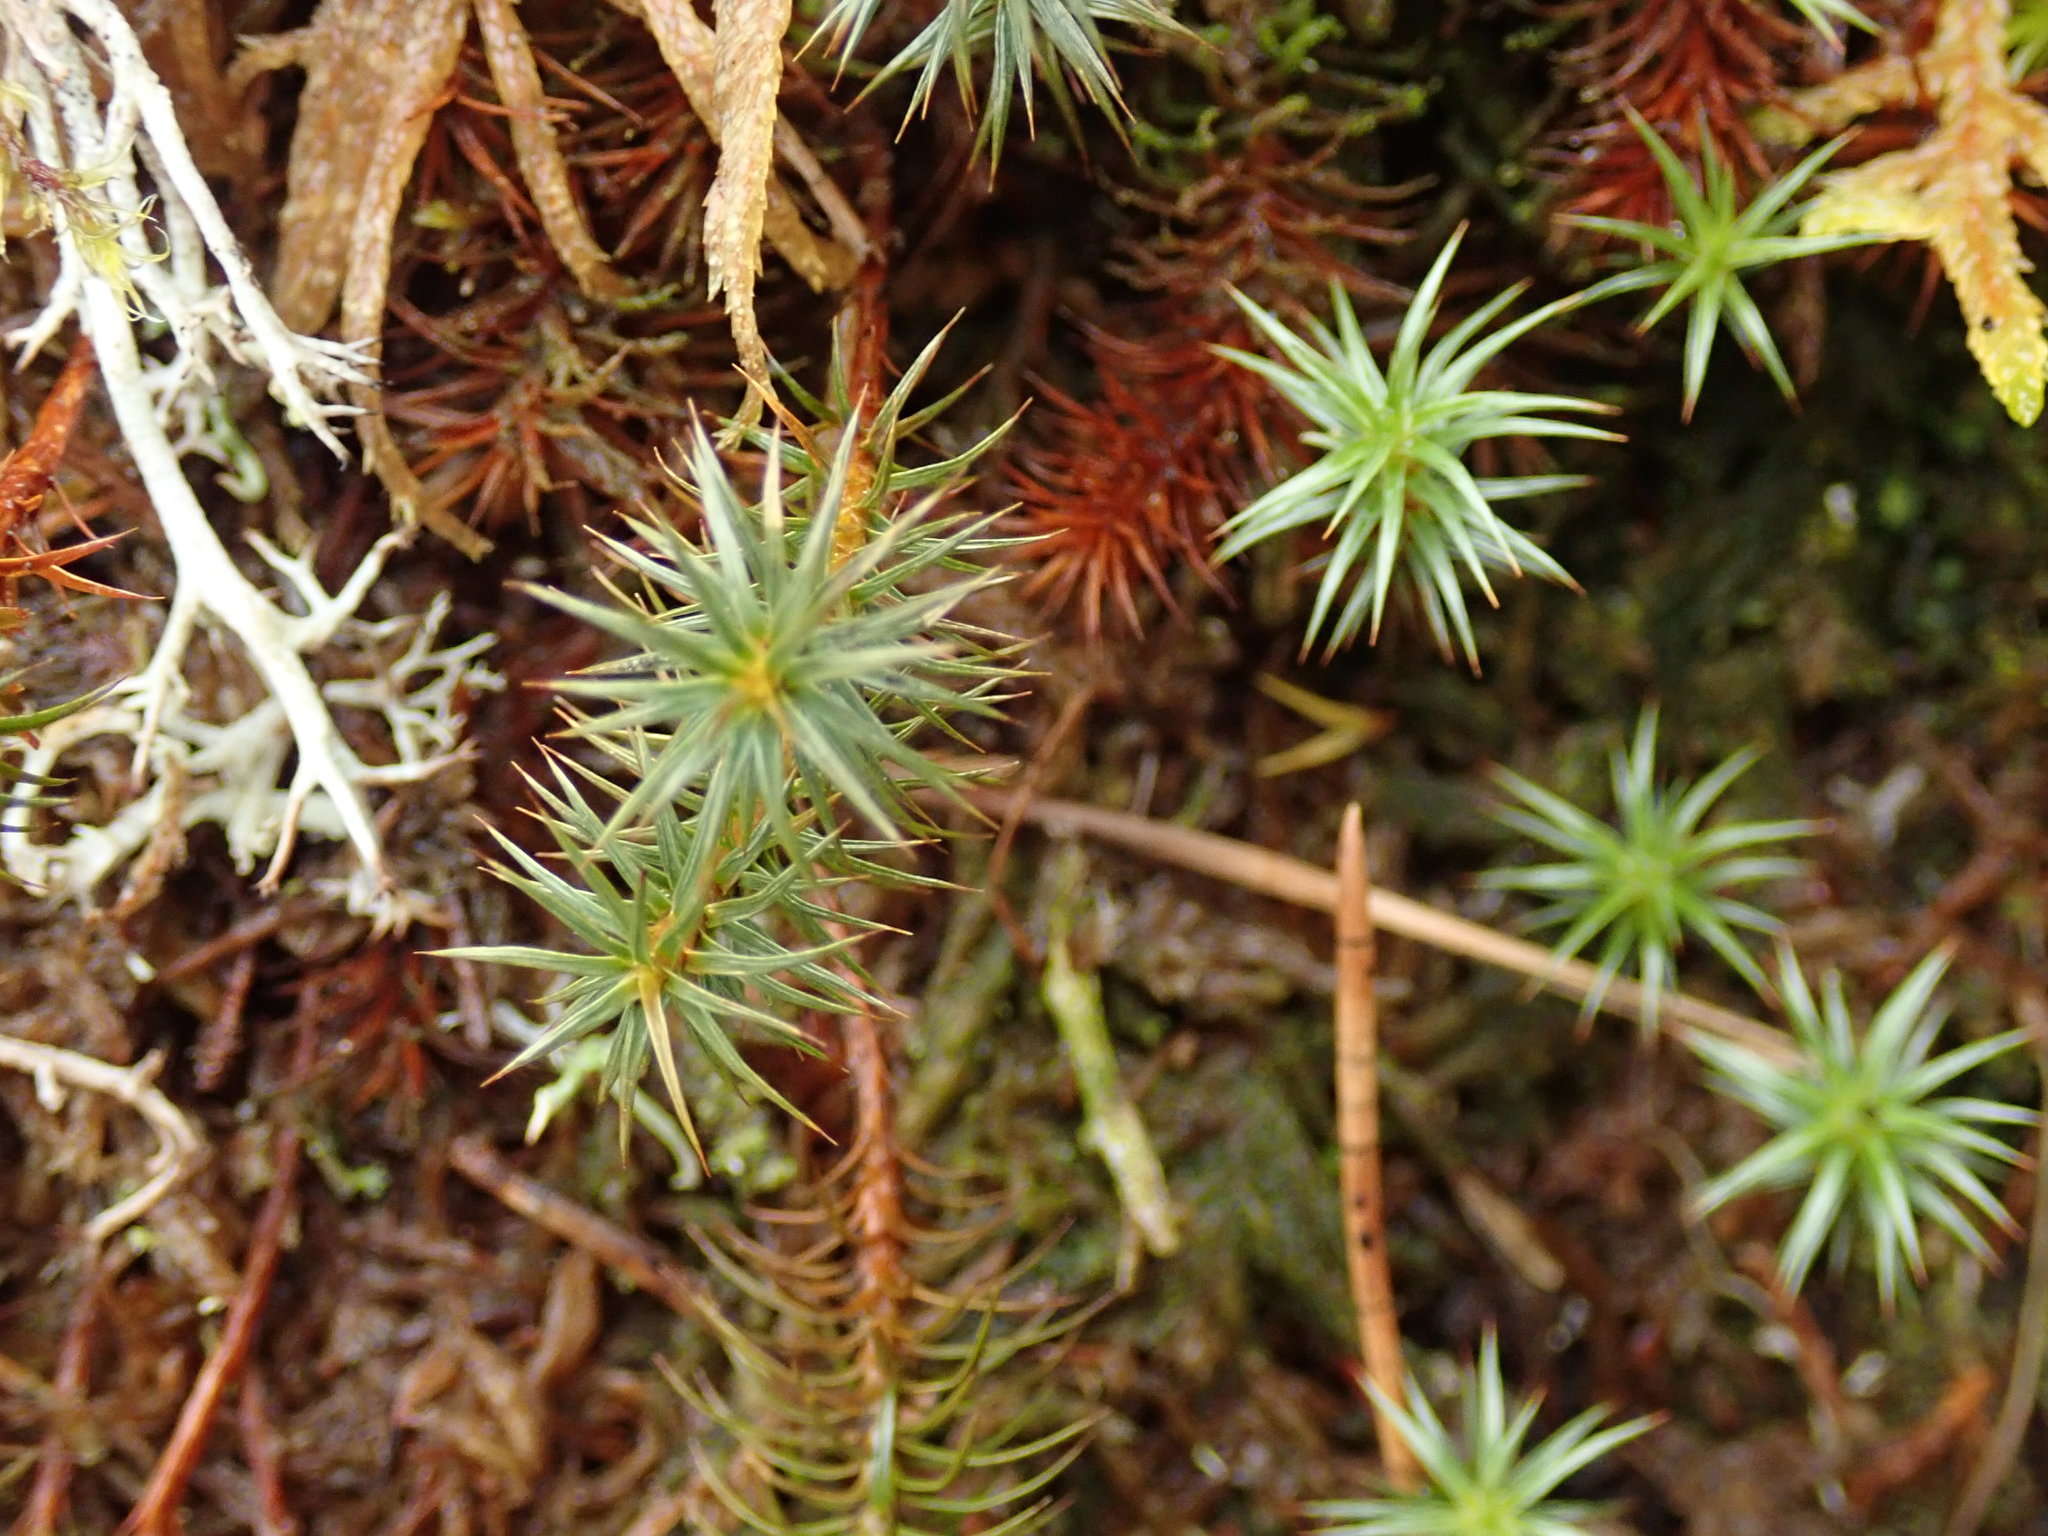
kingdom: Plantae
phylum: Bryophyta
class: Polytrichopsida
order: Polytrichales
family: Polytrichaceae
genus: Polytrichum
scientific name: Polytrichum juniperinum
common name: Juniper haircap moss
